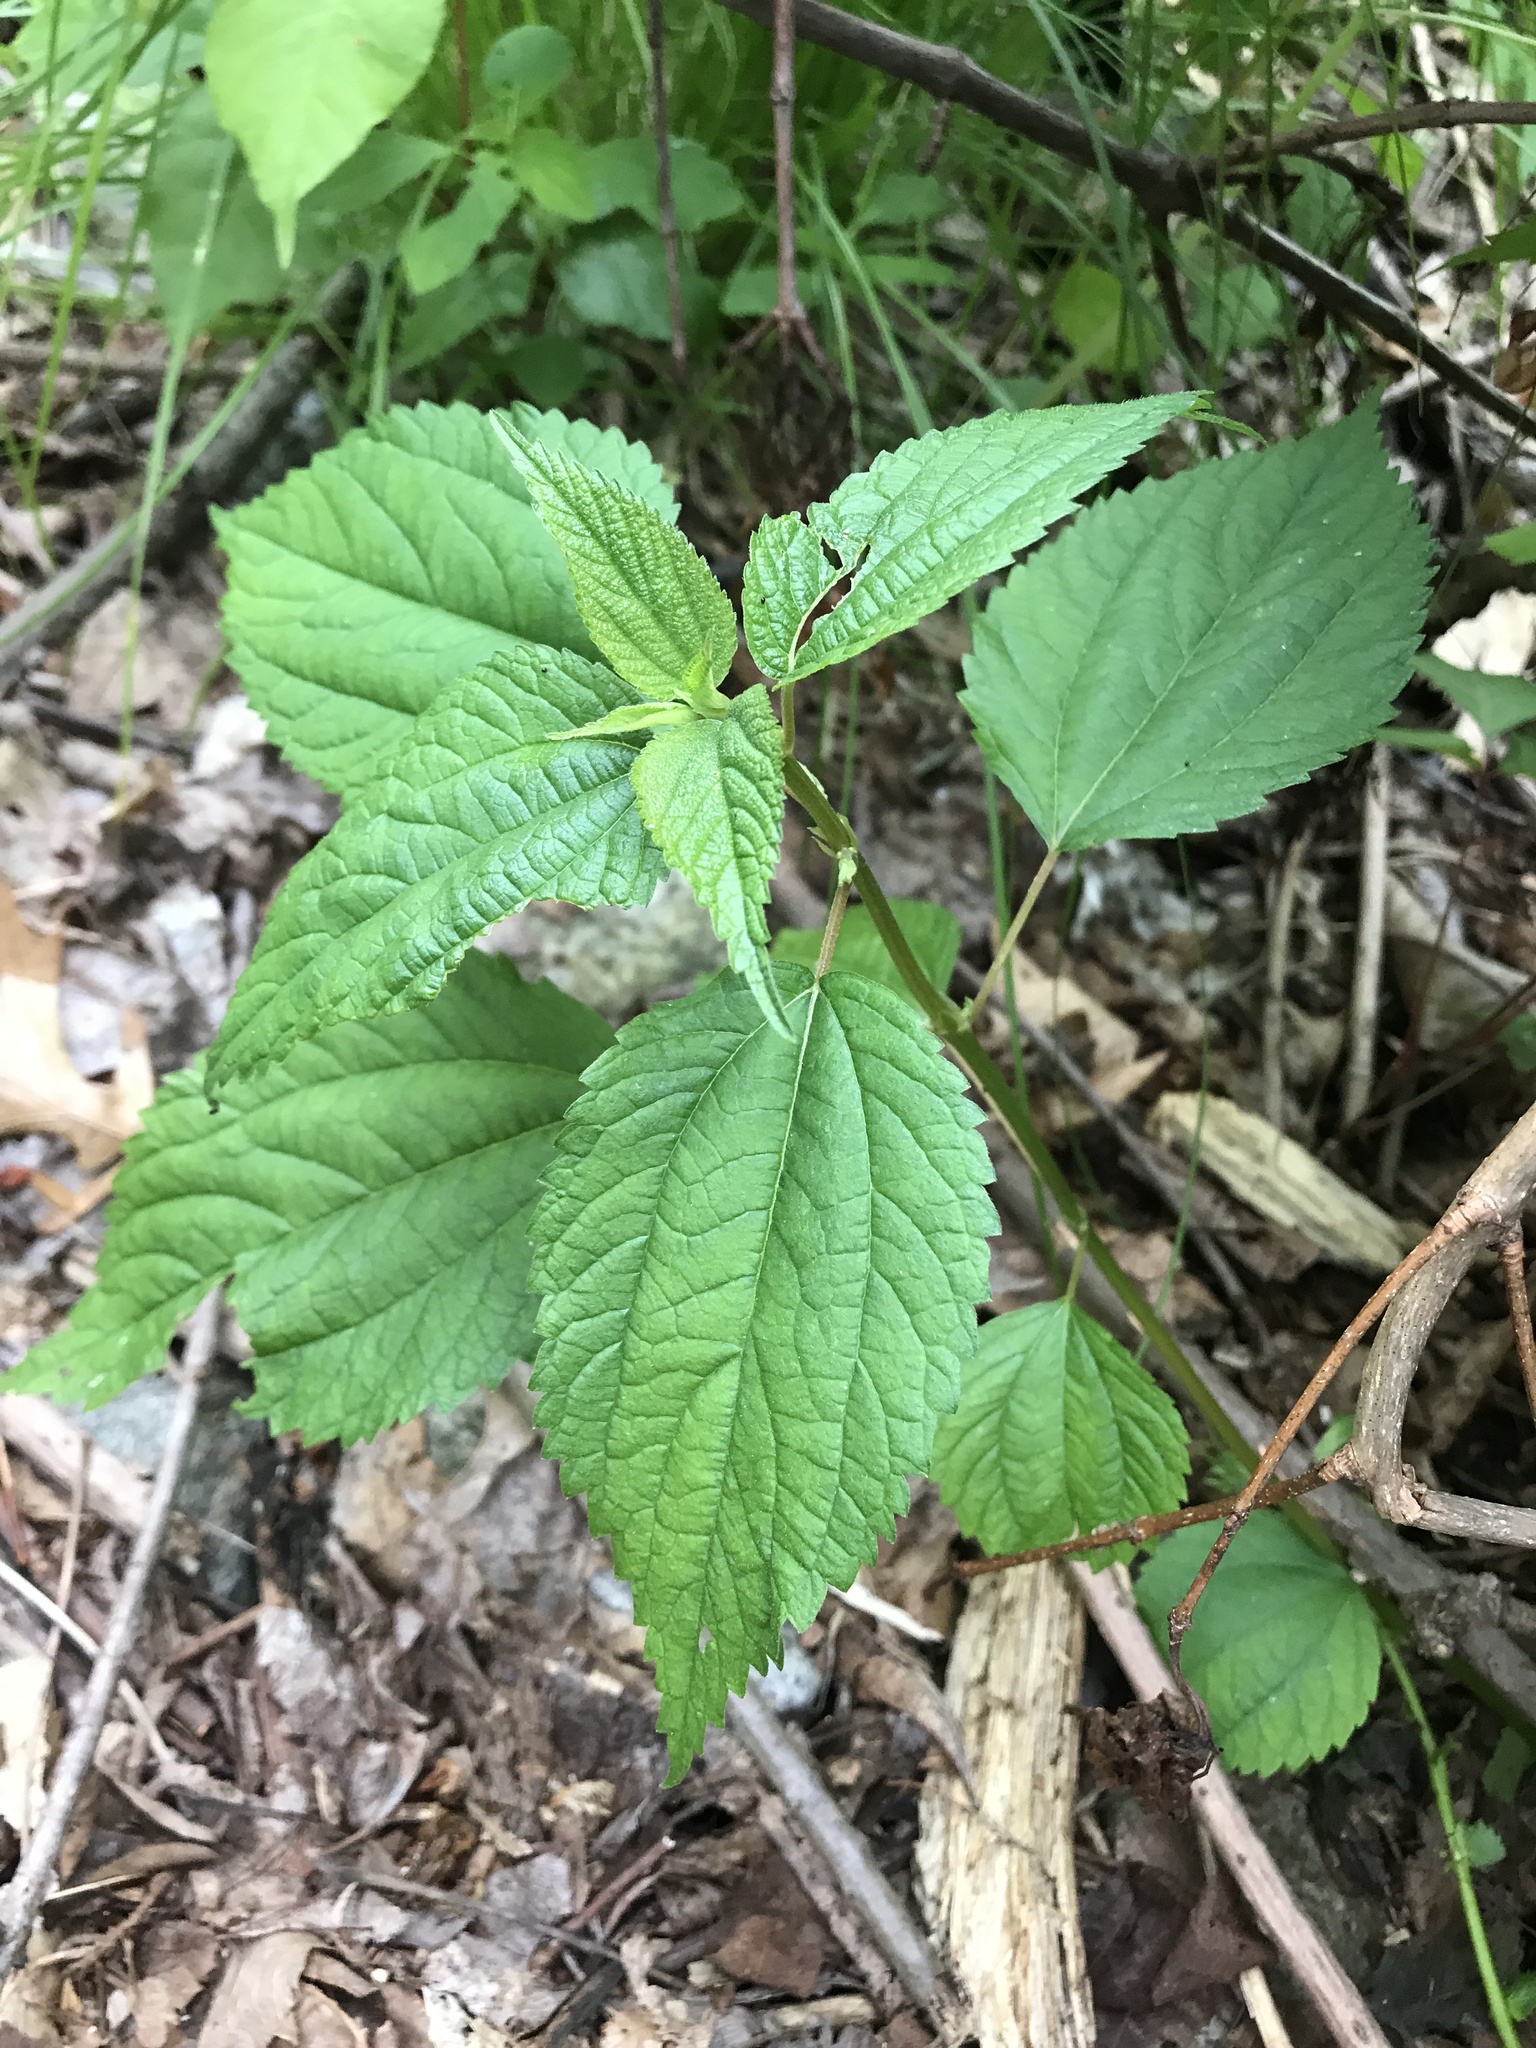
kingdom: Plantae
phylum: Tracheophyta
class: Magnoliopsida
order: Rosales
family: Urticaceae
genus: Boehmeria
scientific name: Boehmeria cylindrica
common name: Bog-hemp
